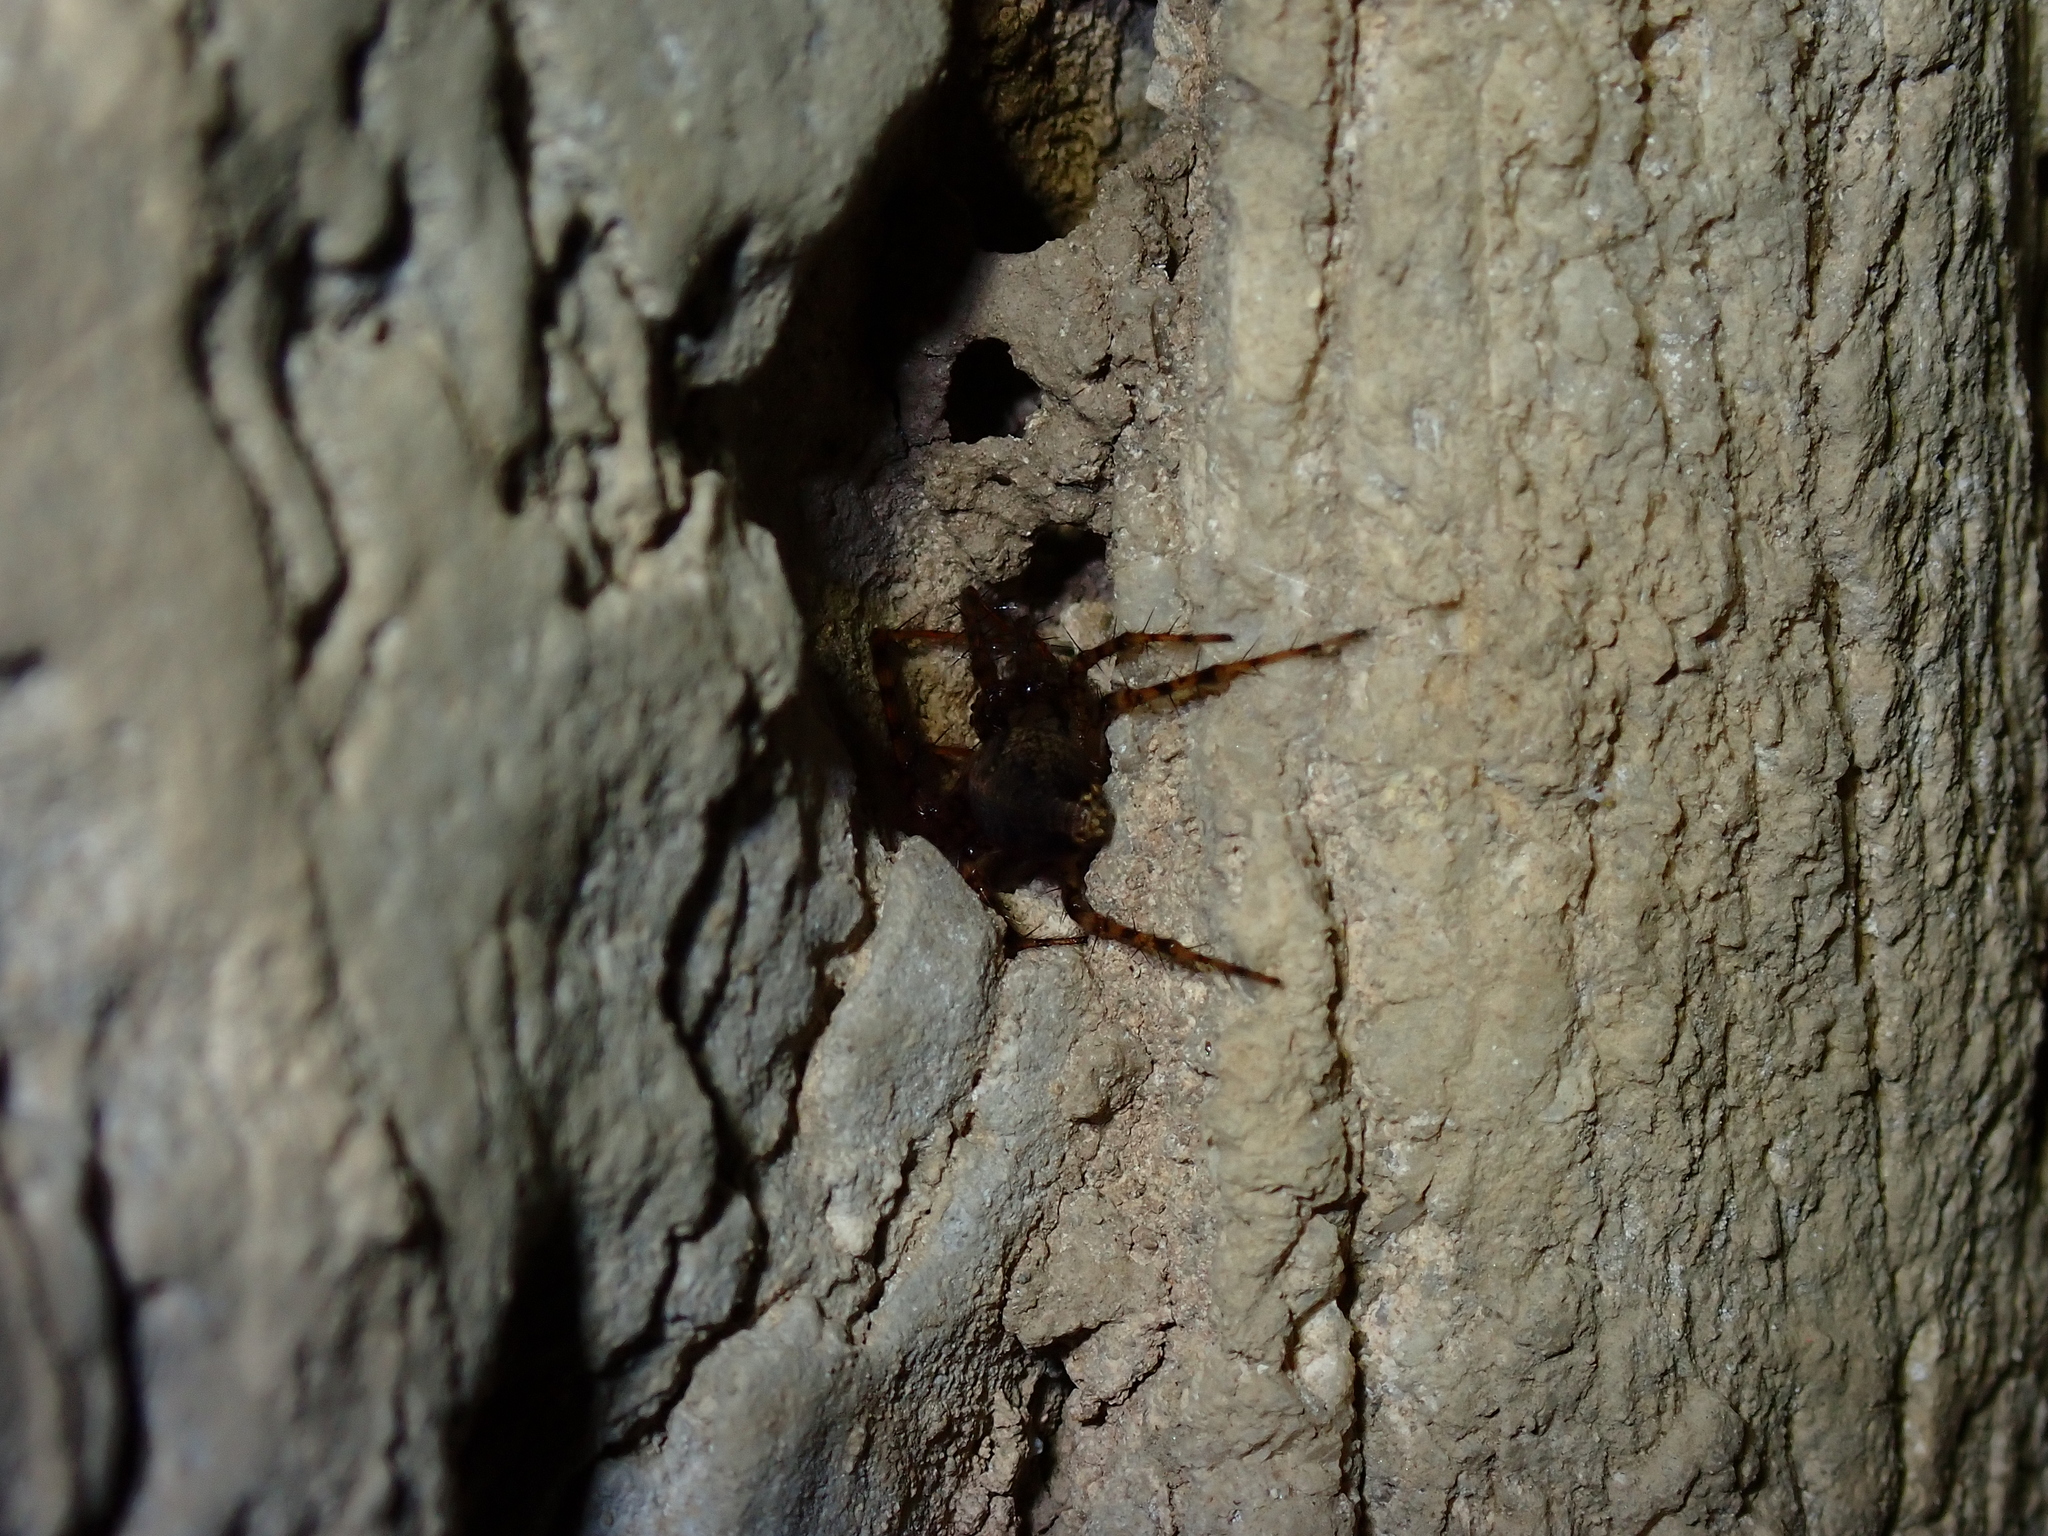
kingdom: Animalia
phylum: Arthropoda
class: Arachnida
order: Araneae
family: Tetragnathidae
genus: Metellina
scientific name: Metellina merianae
